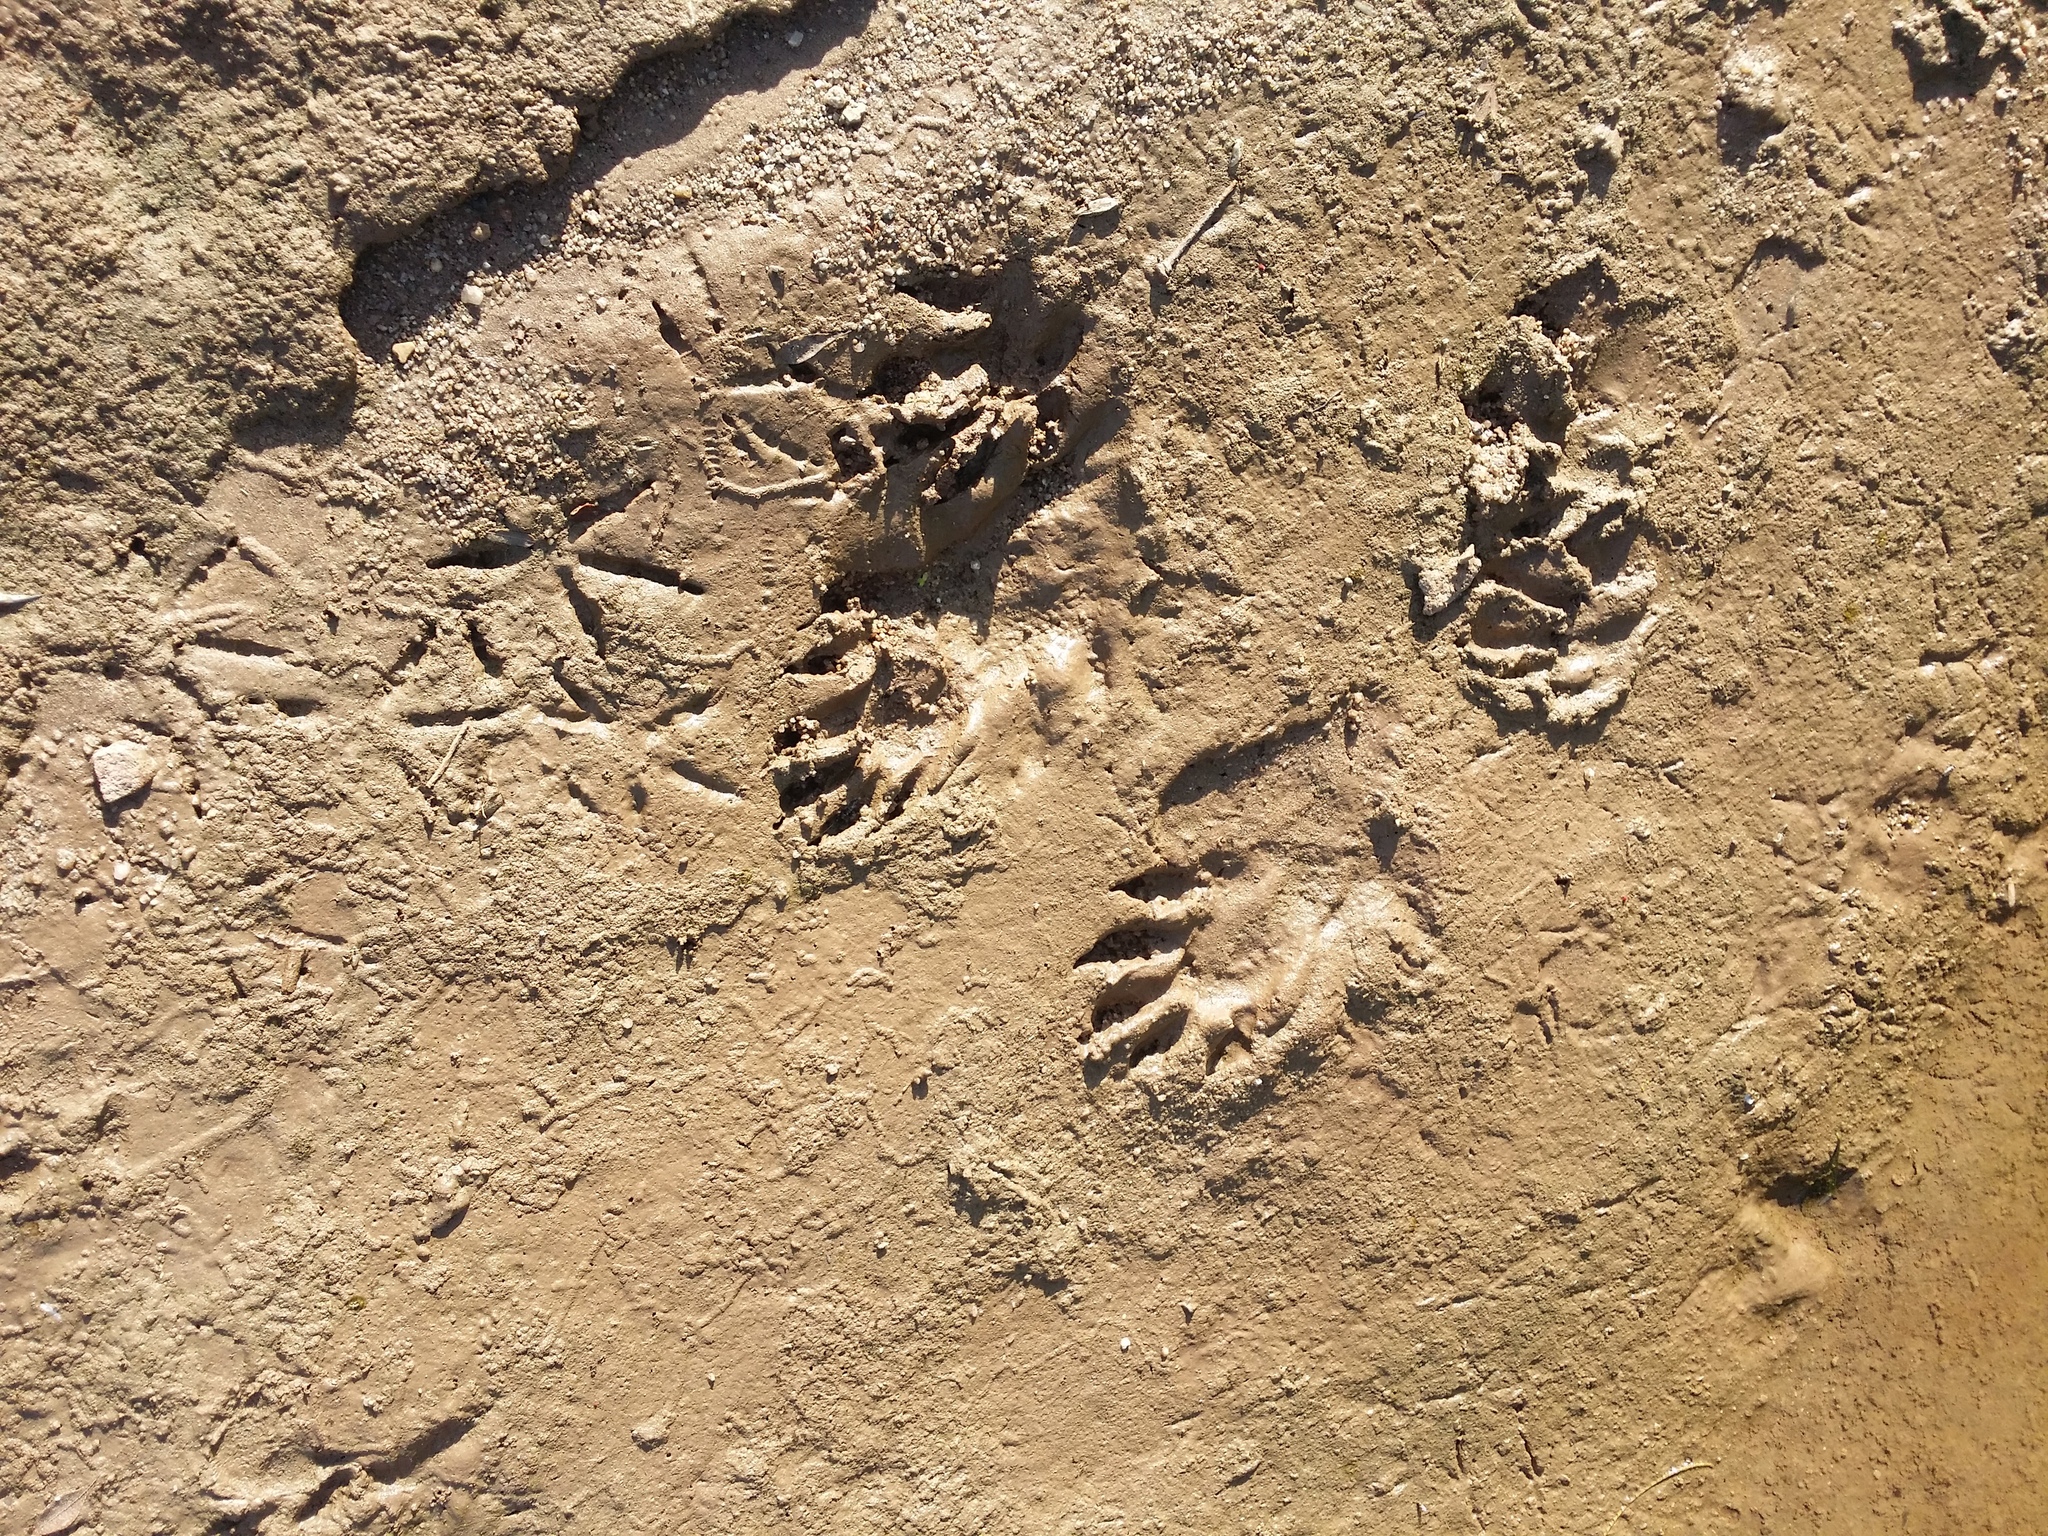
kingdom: Animalia
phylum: Chordata
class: Mammalia
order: Carnivora
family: Procyonidae
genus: Procyon
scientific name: Procyon lotor
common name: Raccoon
